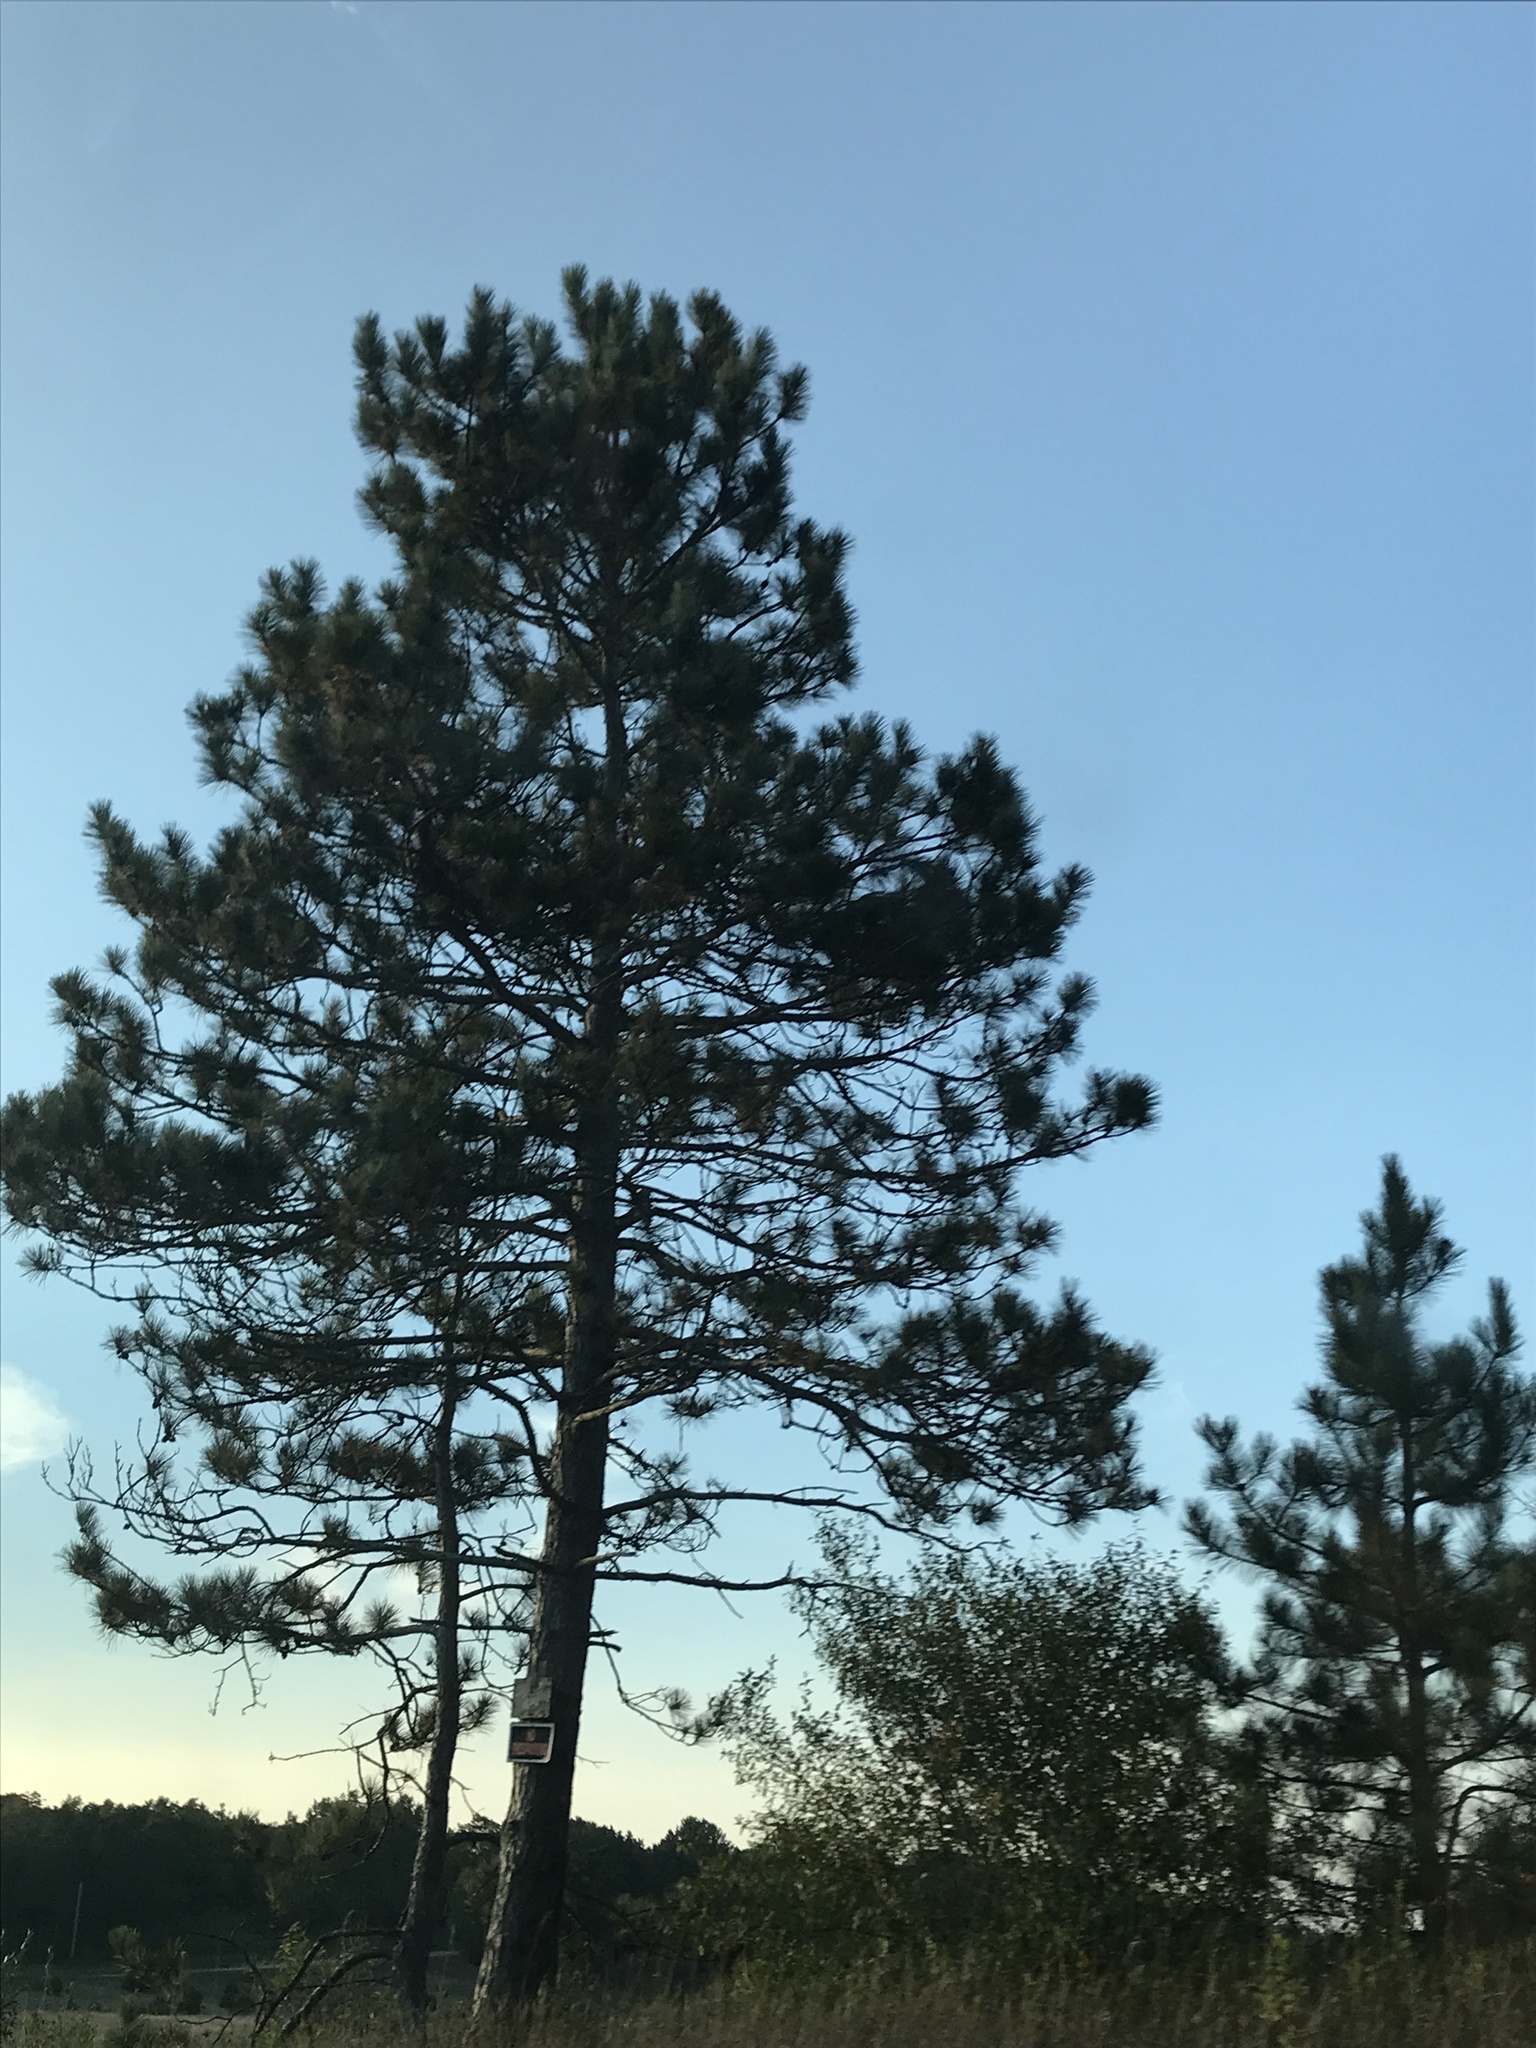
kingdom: Plantae
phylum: Tracheophyta
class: Pinopsida
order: Pinales
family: Pinaceae
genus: Pinus
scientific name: Pinus resinosa
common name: Norway pine
